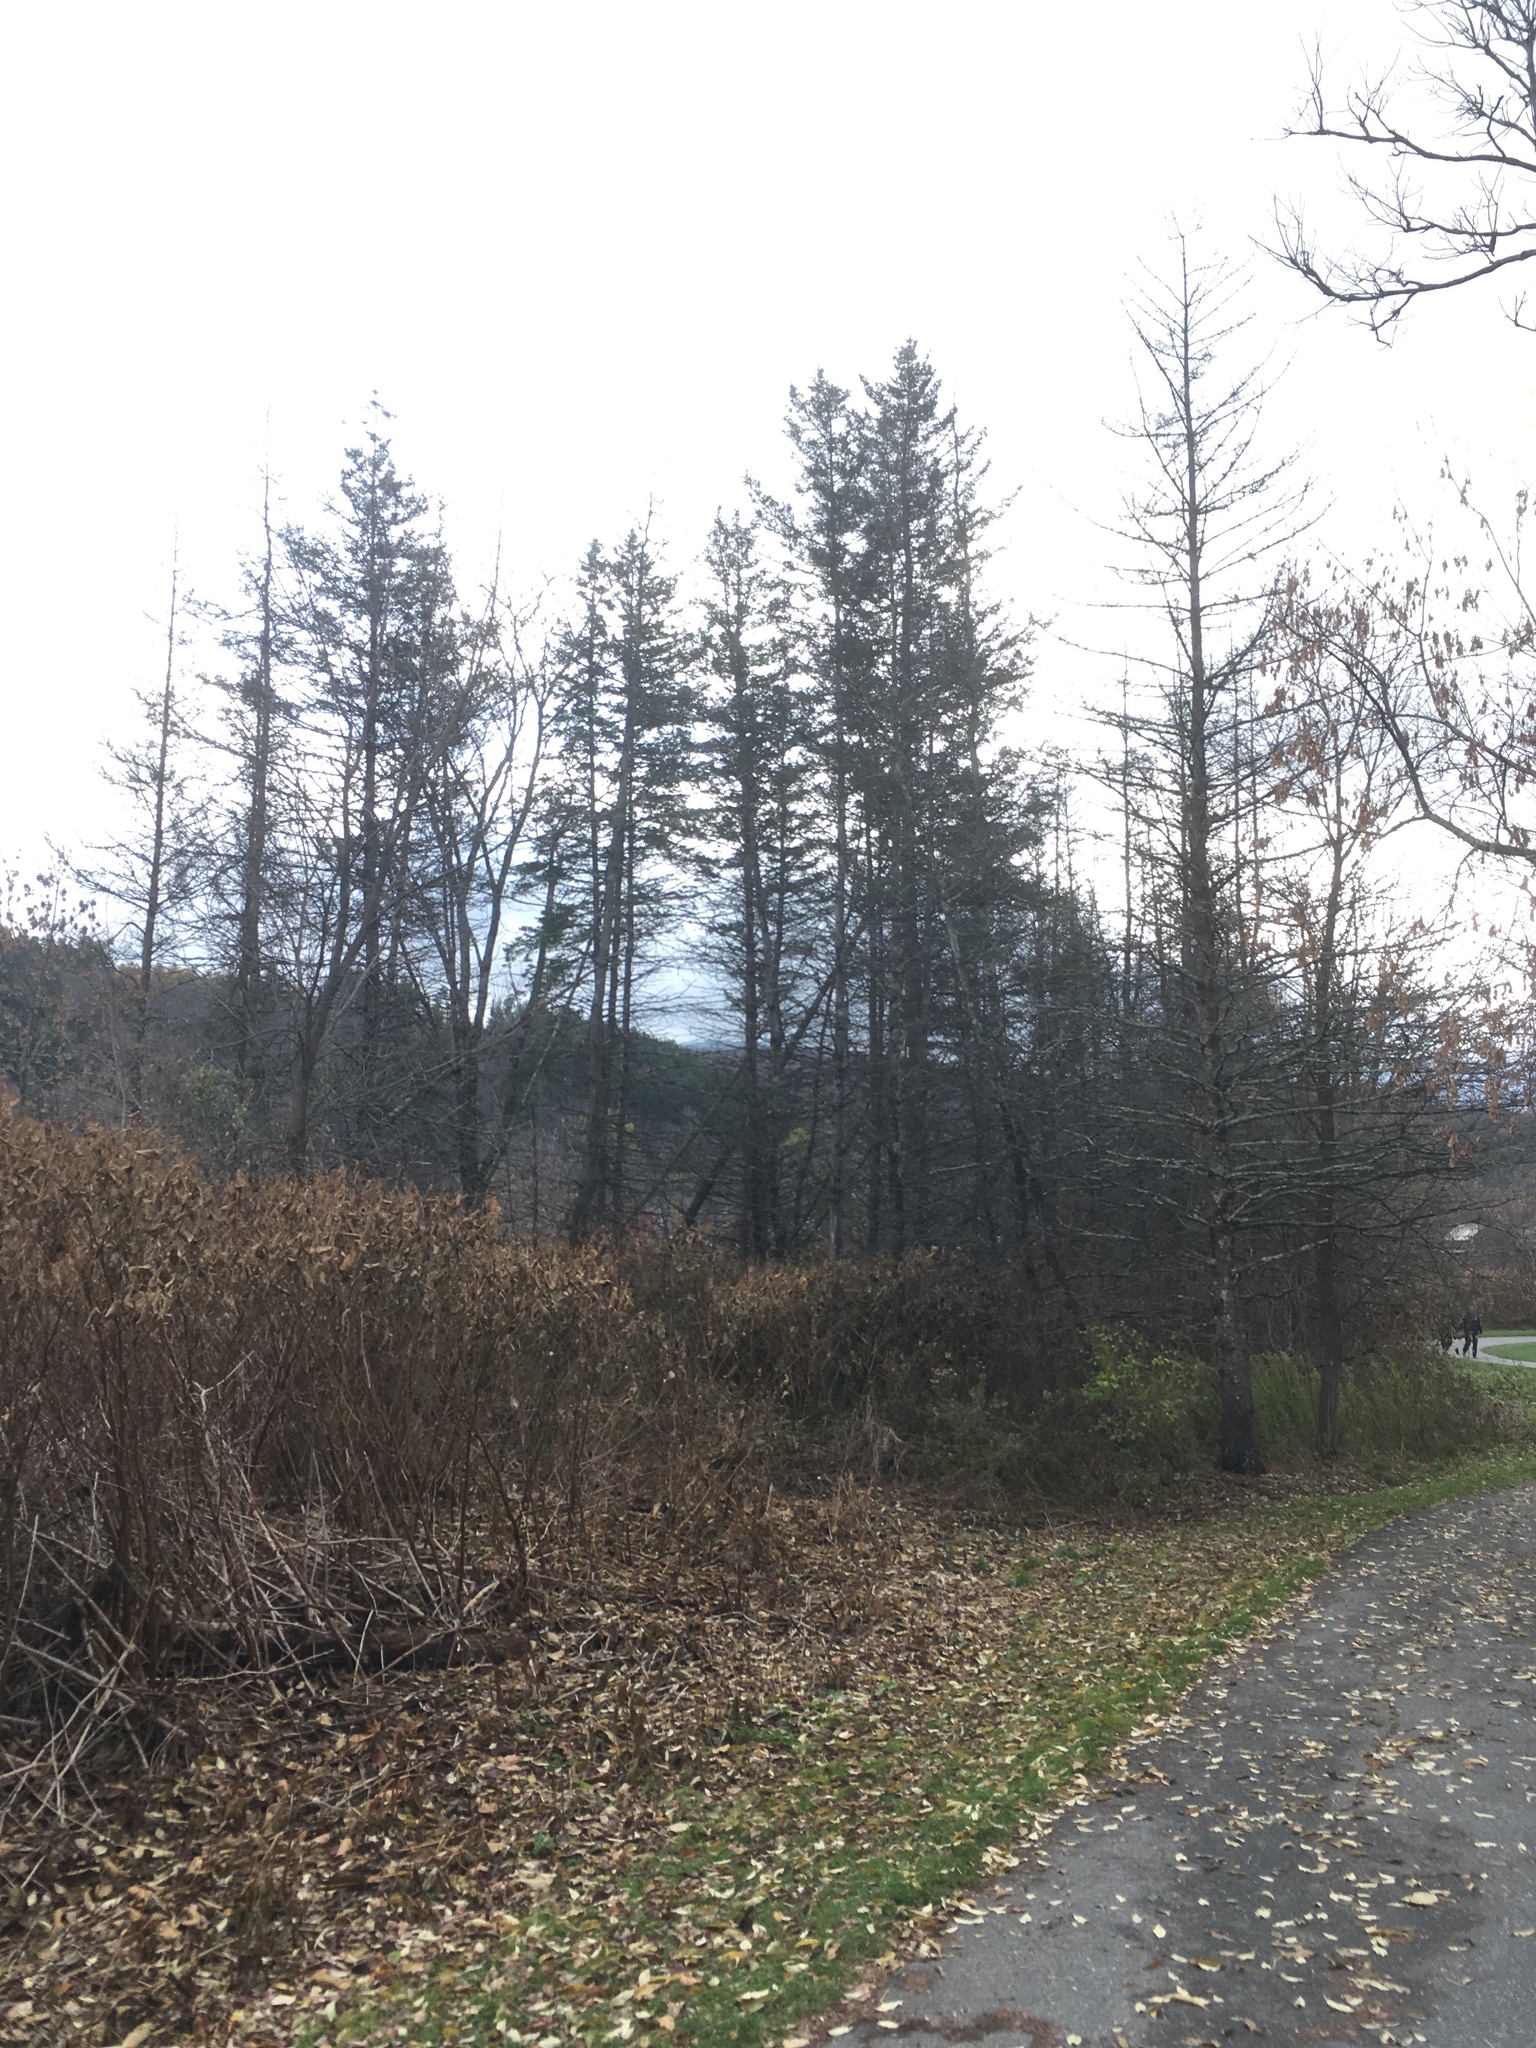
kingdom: Plantae
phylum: Tracheophyta
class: Pinopsida
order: Pinales
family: Pinaceae
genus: Picea
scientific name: Picea glauca
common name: White spruce
